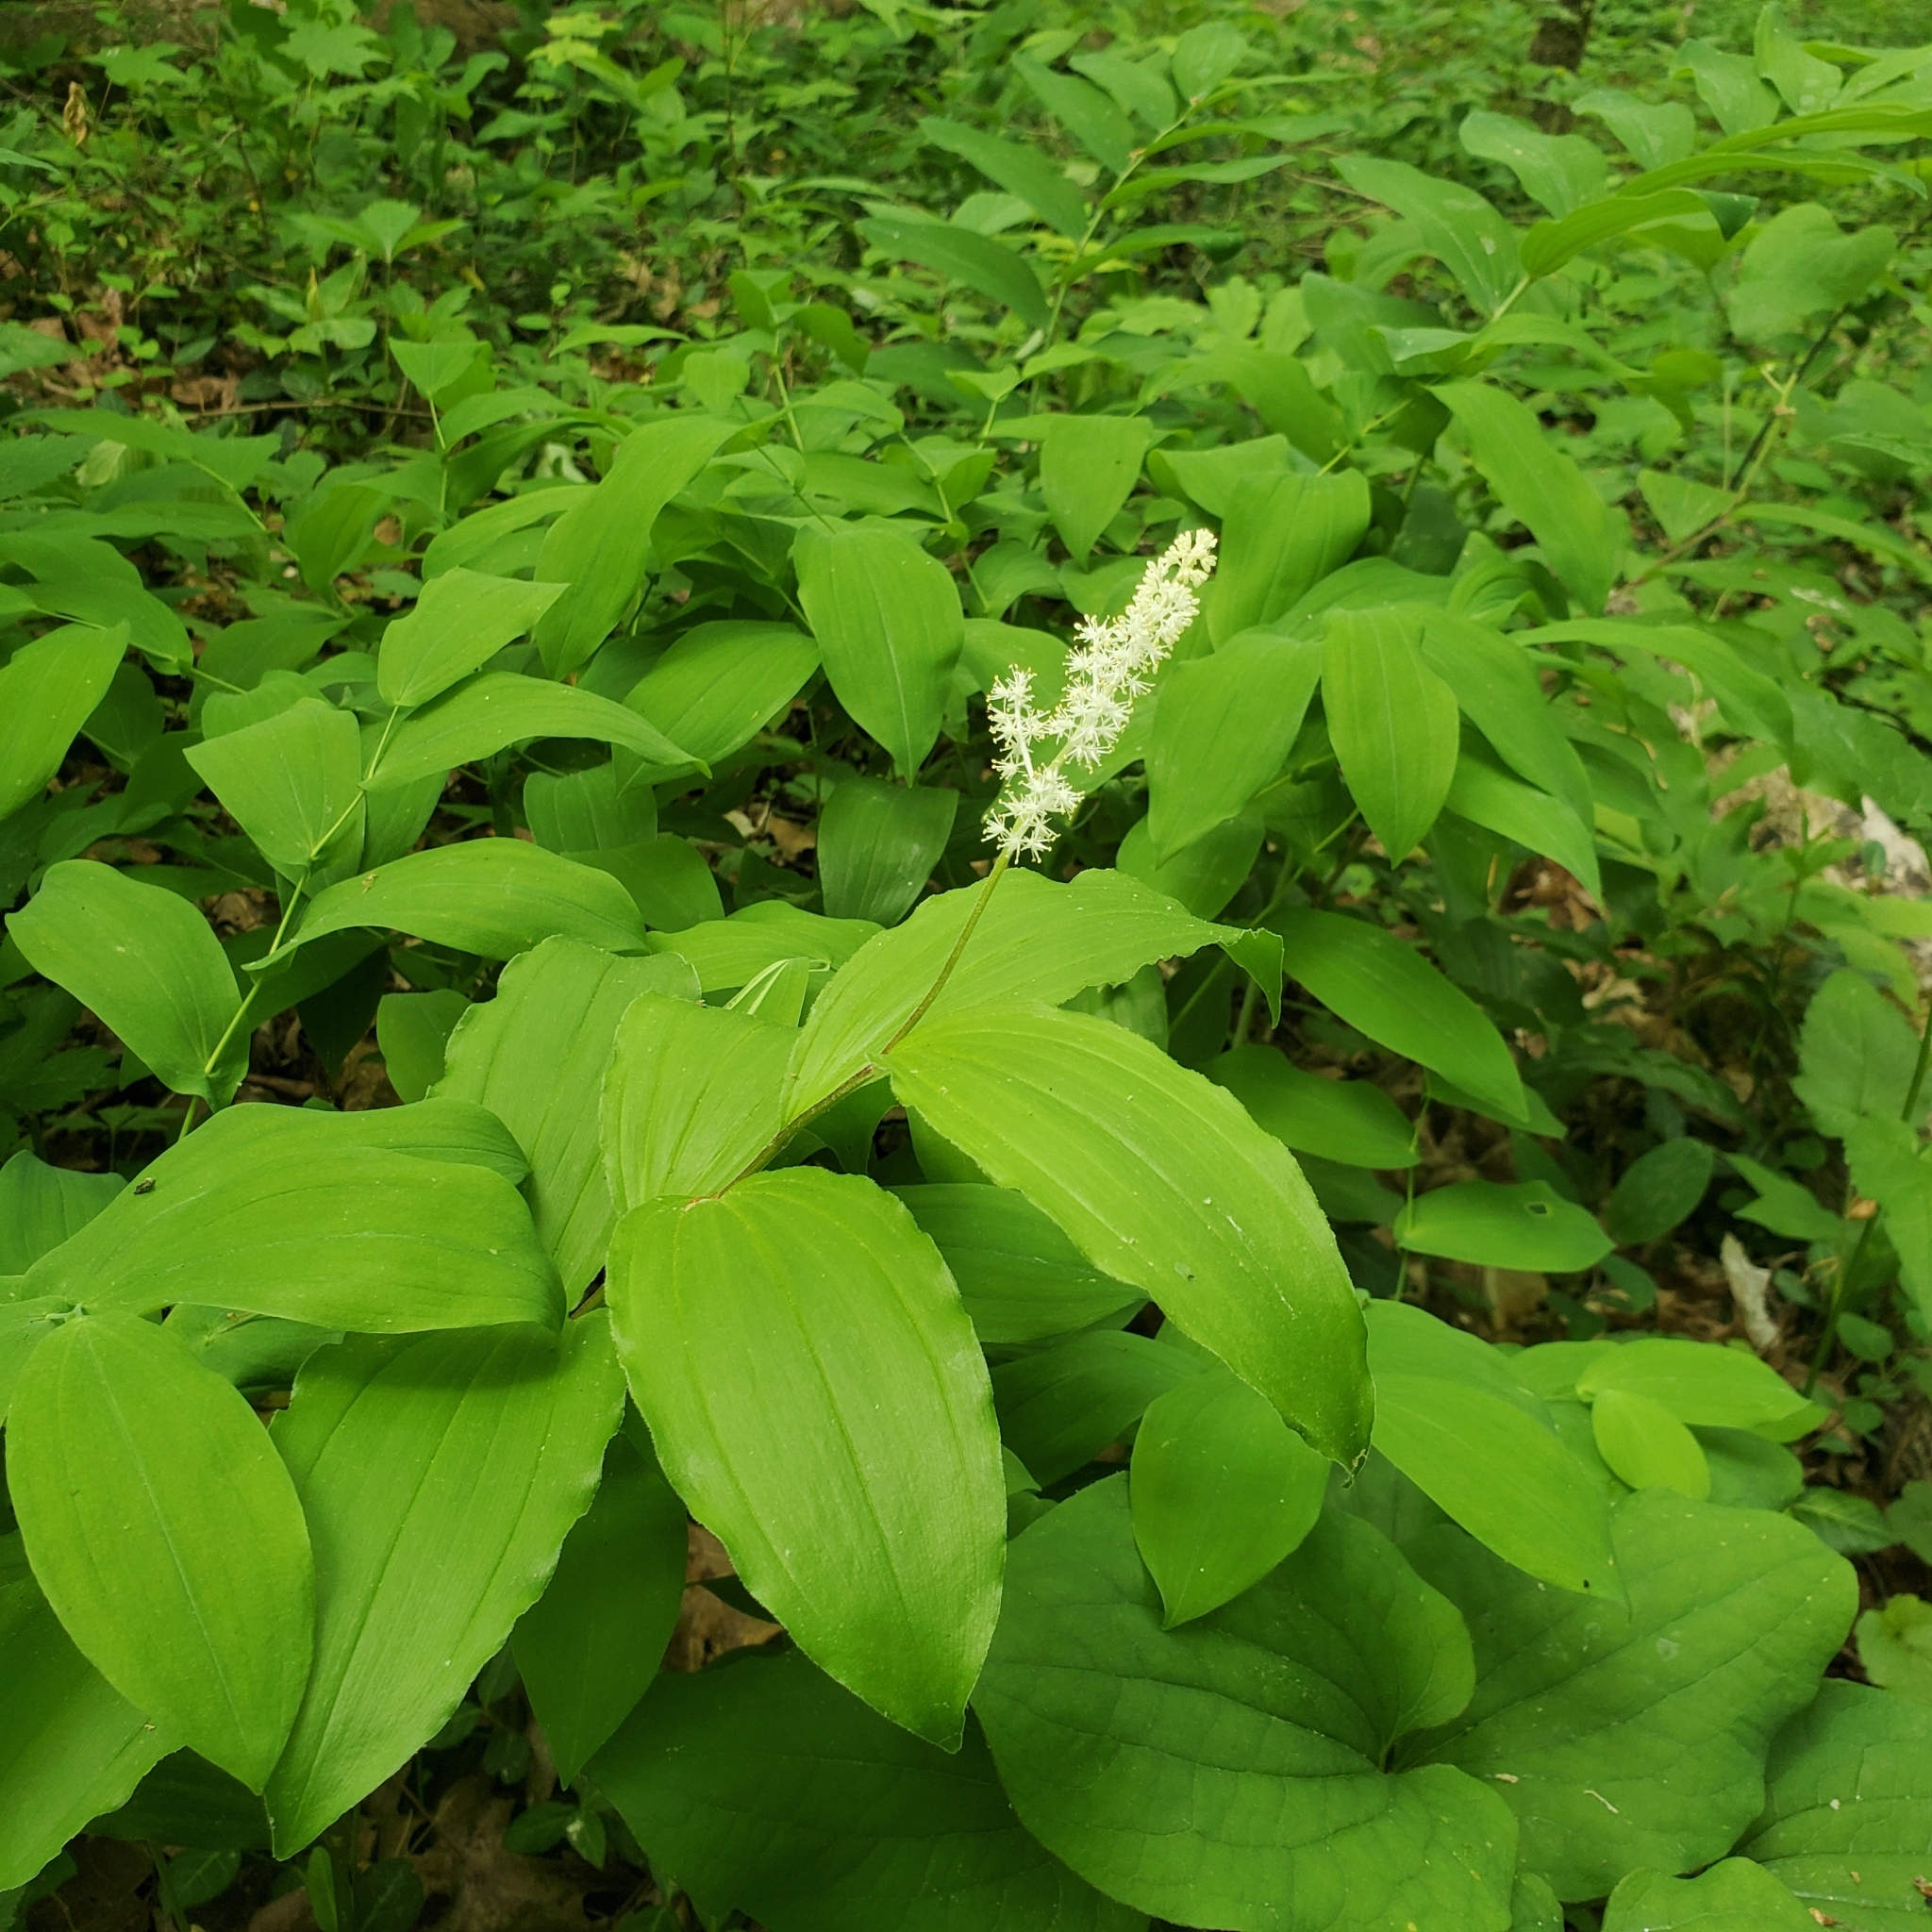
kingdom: Plantae
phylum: Tracheophyta
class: Liliopsida
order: Asparagales
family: Asparagaceae
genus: Maianthemum
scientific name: Maianthemum racemosum
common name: False spikenard
